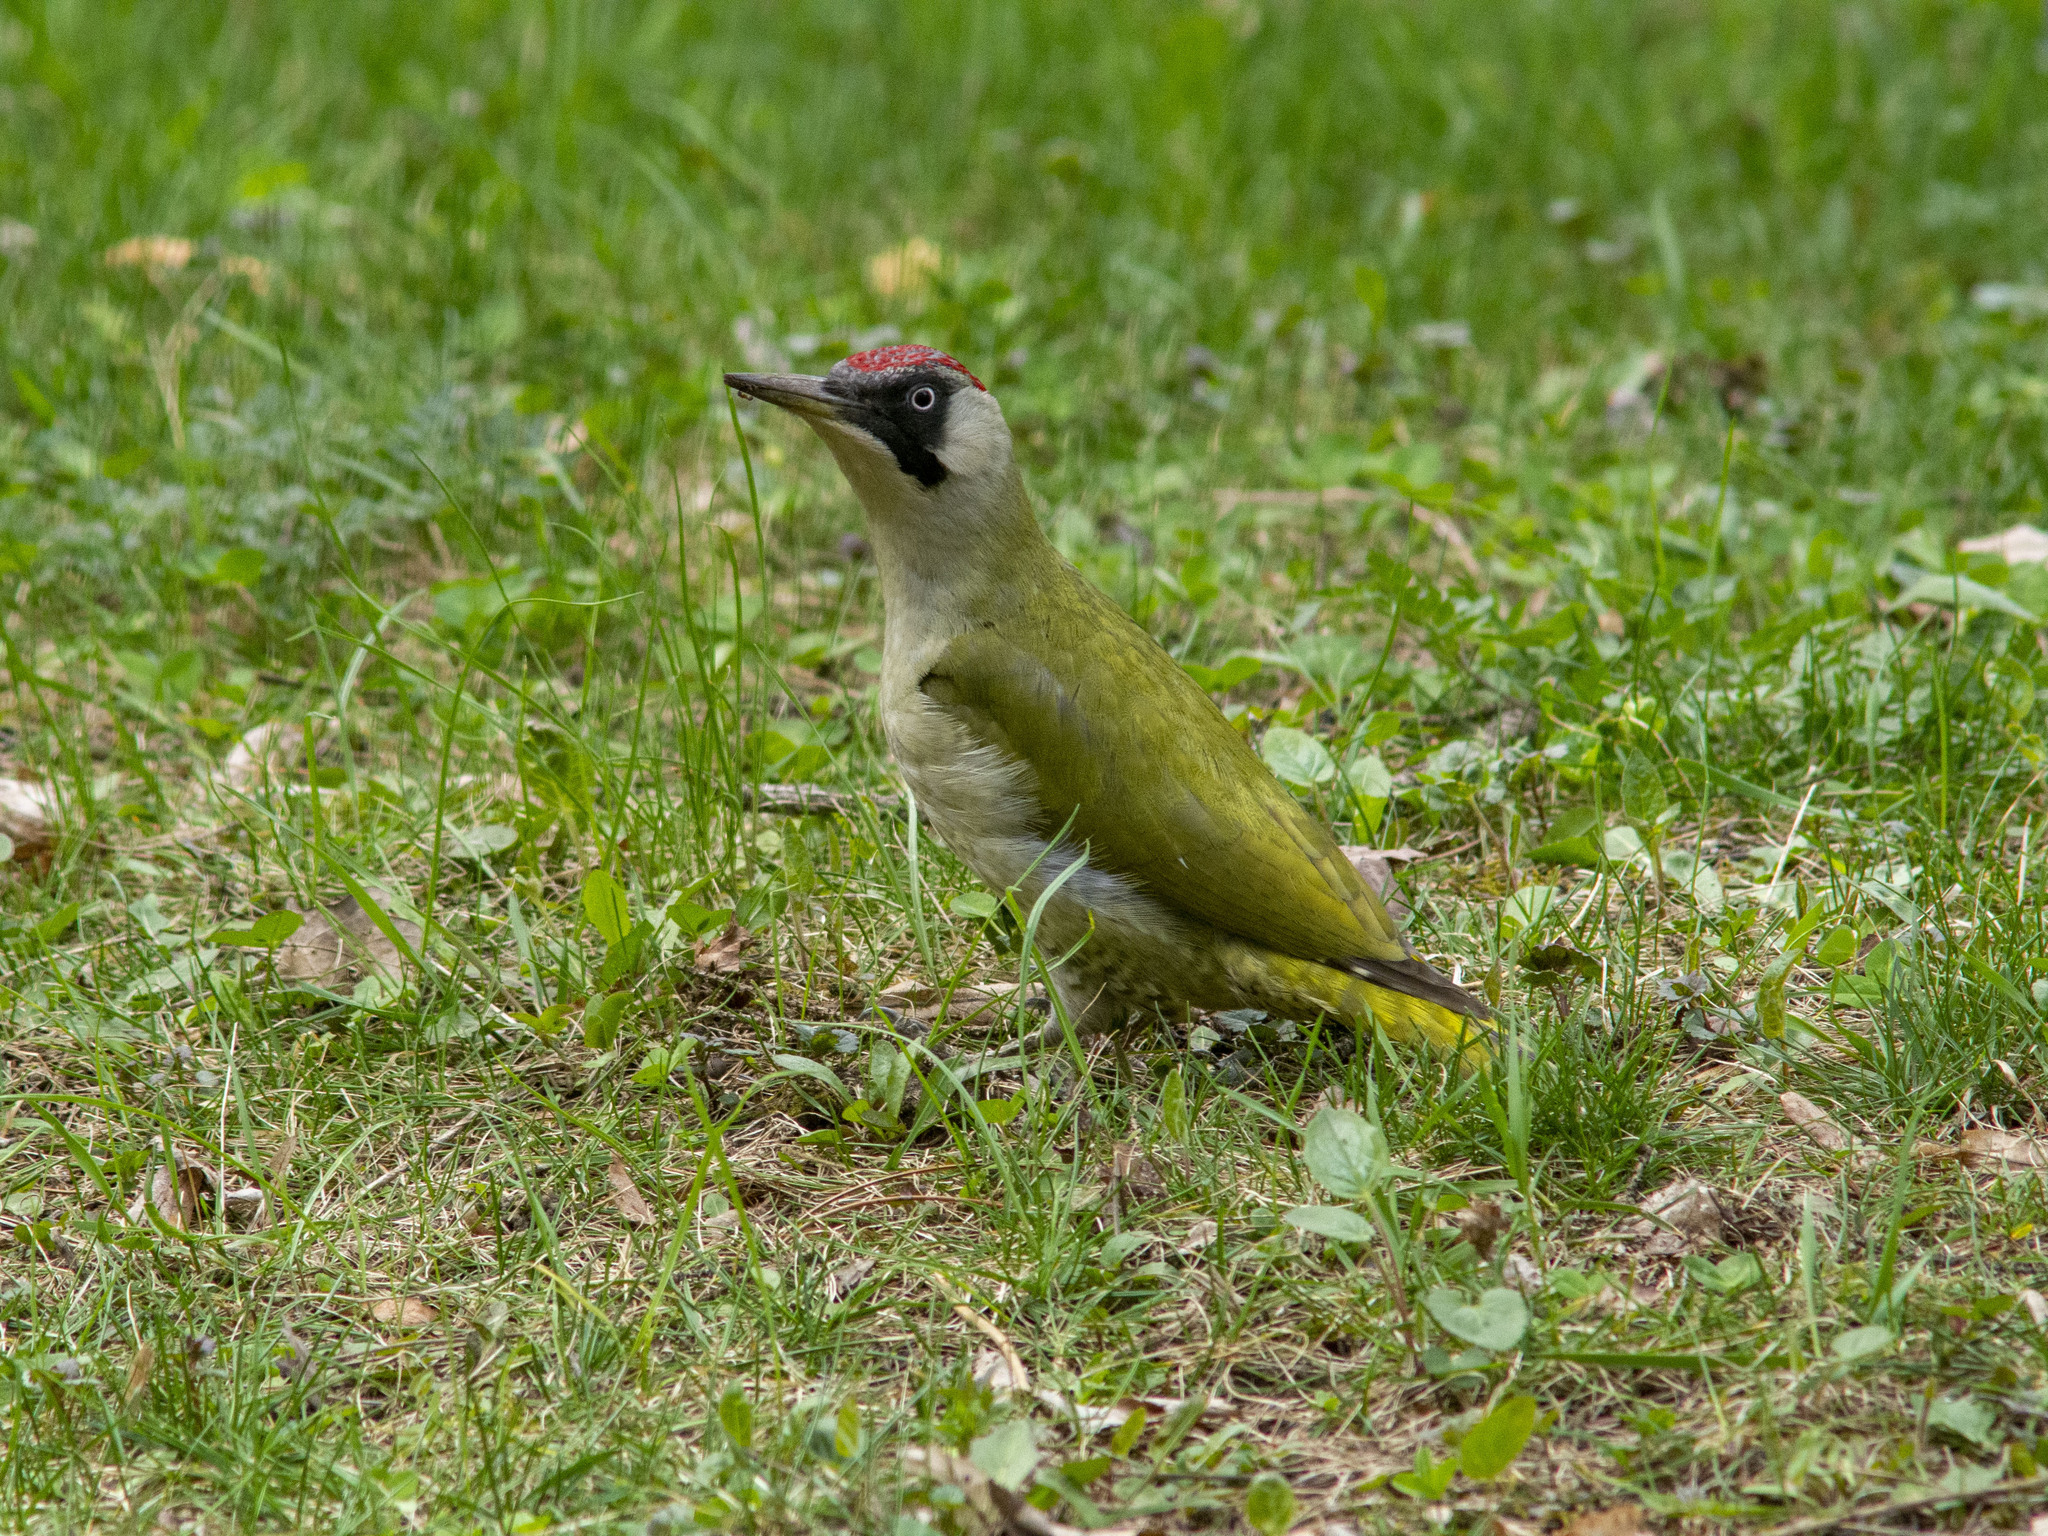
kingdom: Animalia
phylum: Chordata
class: Aves
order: Piciformes
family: Picidae
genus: Picus
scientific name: Picus viridis
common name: European green woodpecker
